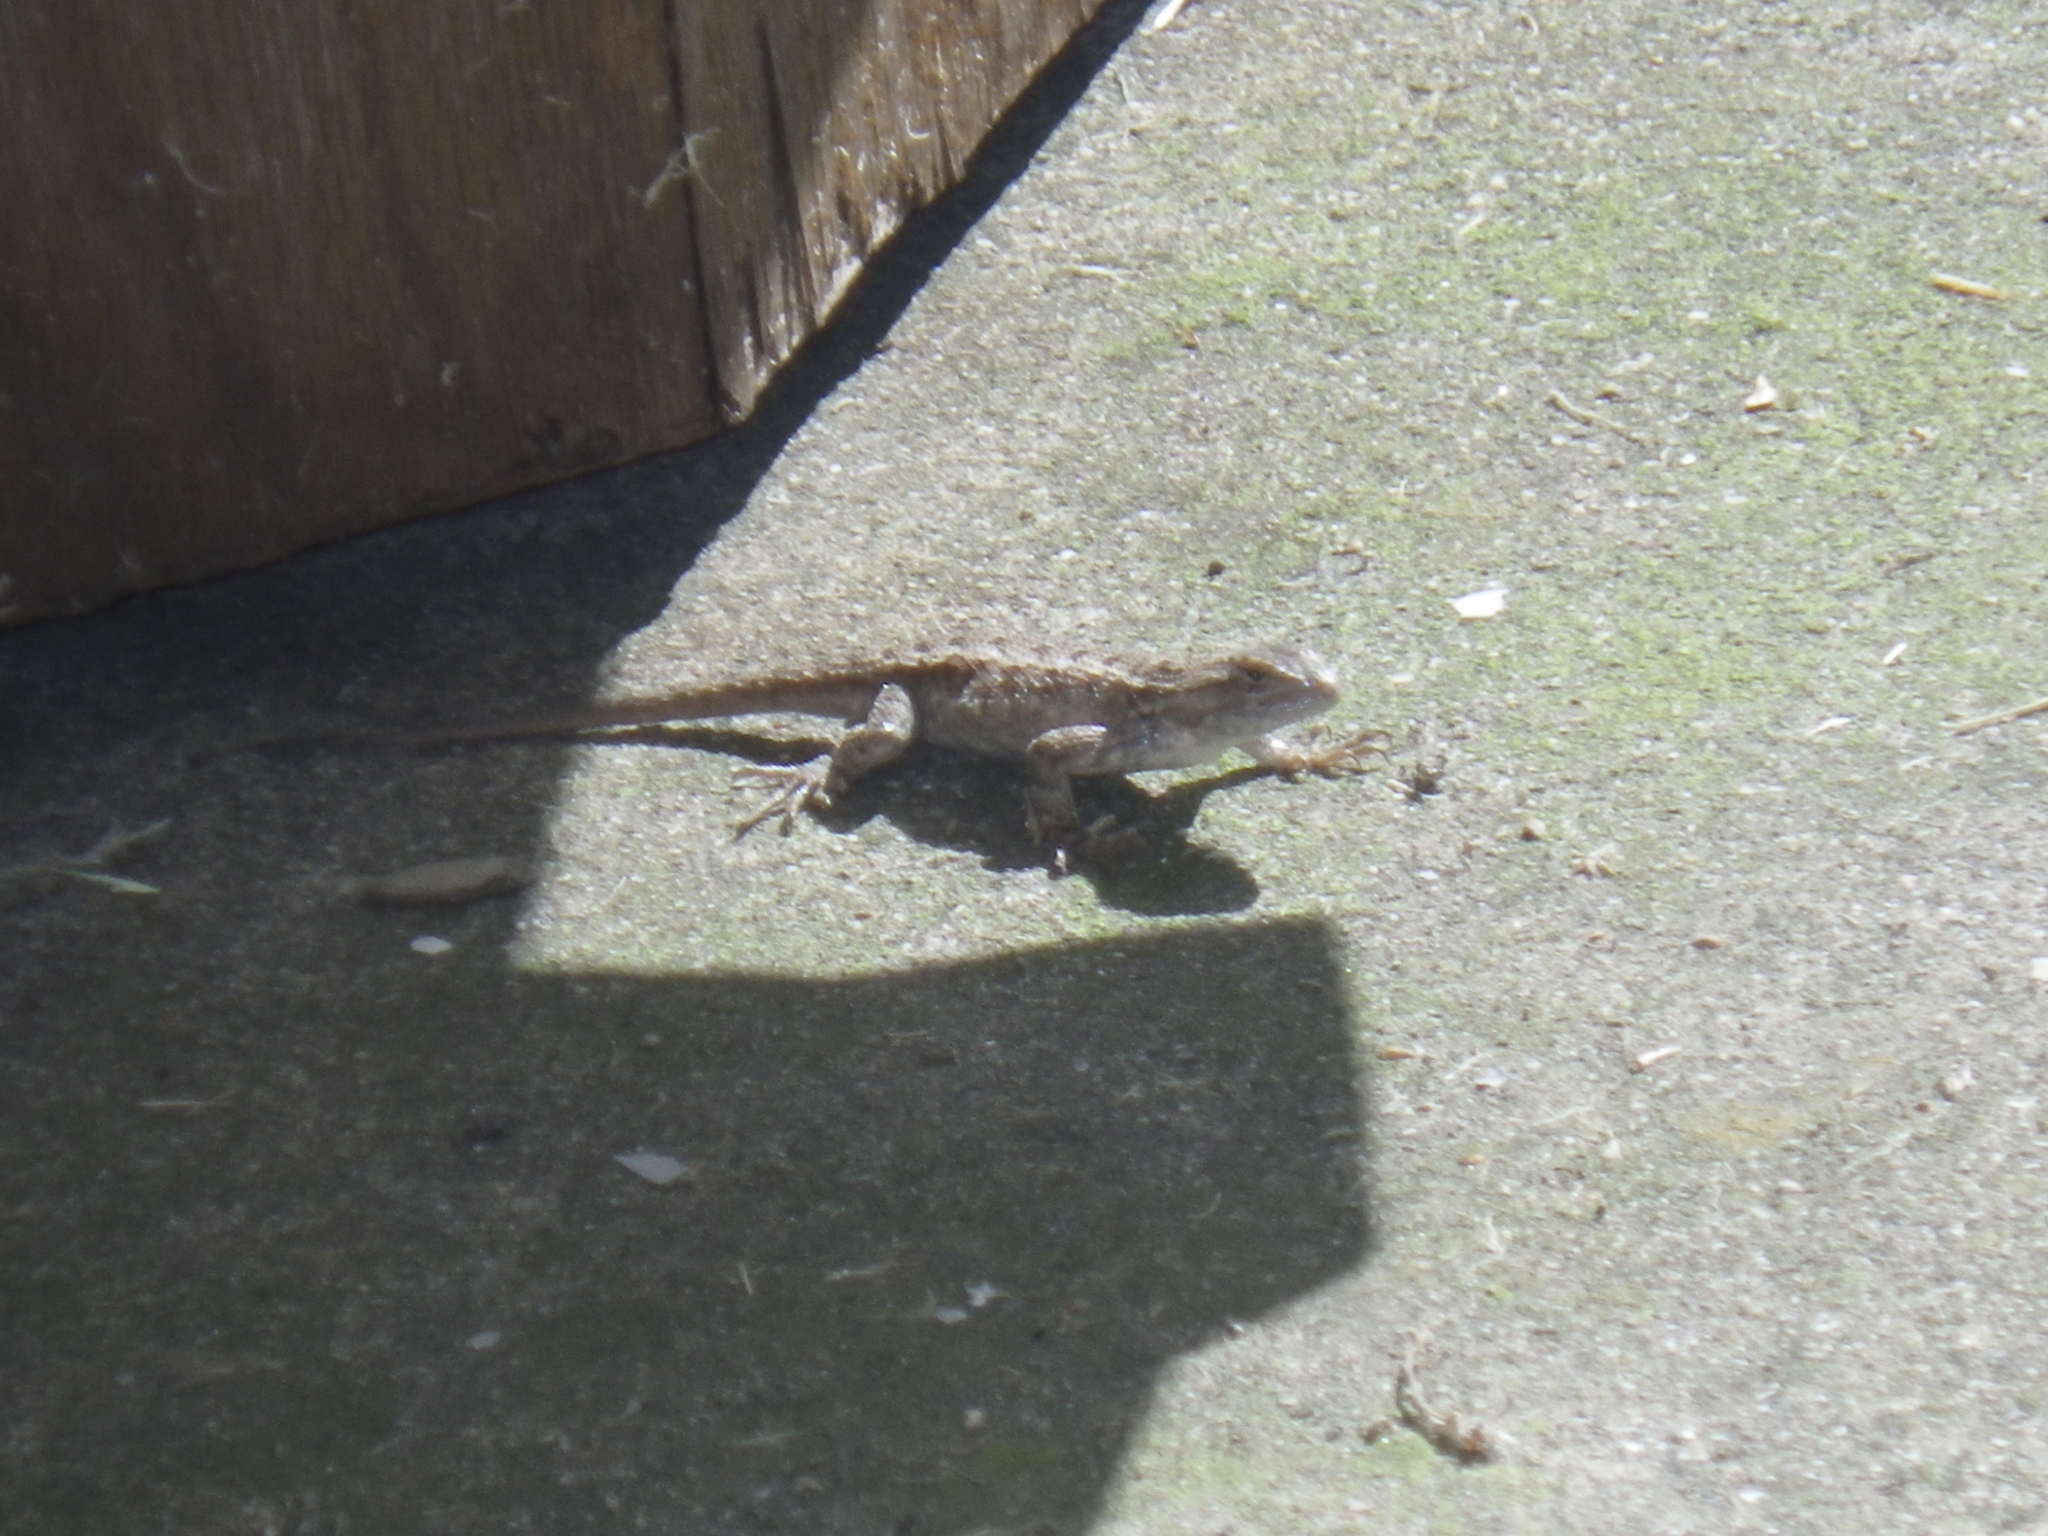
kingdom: Animalia
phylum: Chordata
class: Squamata
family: Phrynosomatidae
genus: Sceloporus
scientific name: Sceloporus occidentalis
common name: Western fence lizard
